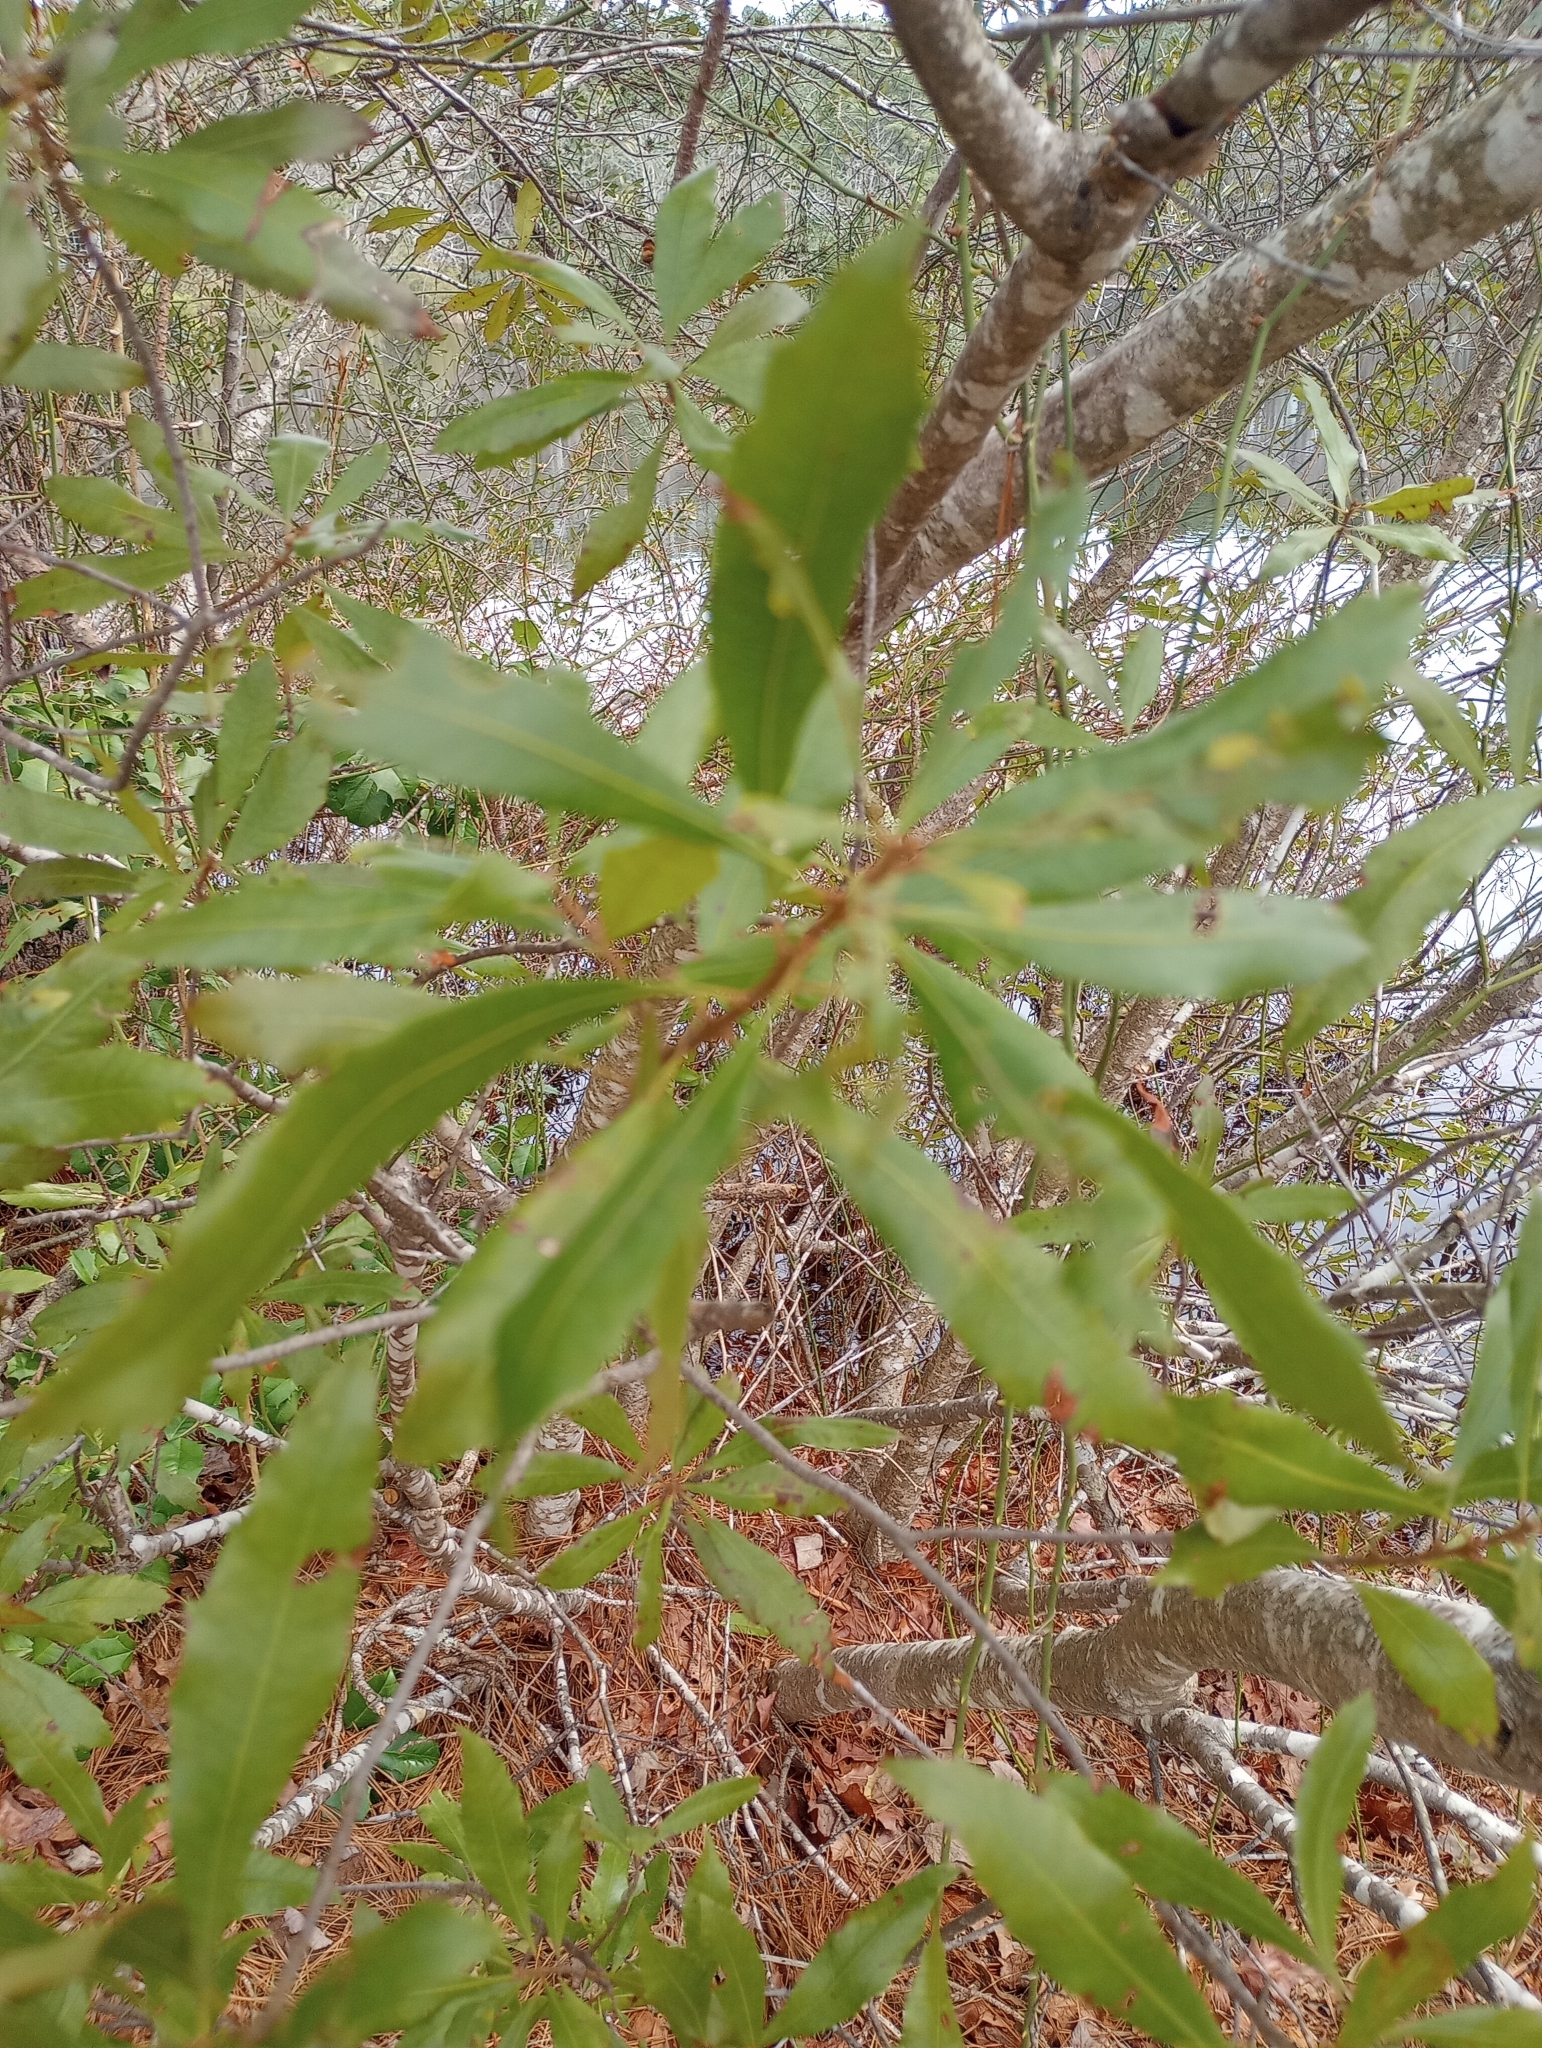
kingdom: Plantae
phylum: Tracheophyta
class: Magnoliopsida
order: Fagales
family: Myricaceae
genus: Morella
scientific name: Morella cerifera
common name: Wax myrtle
